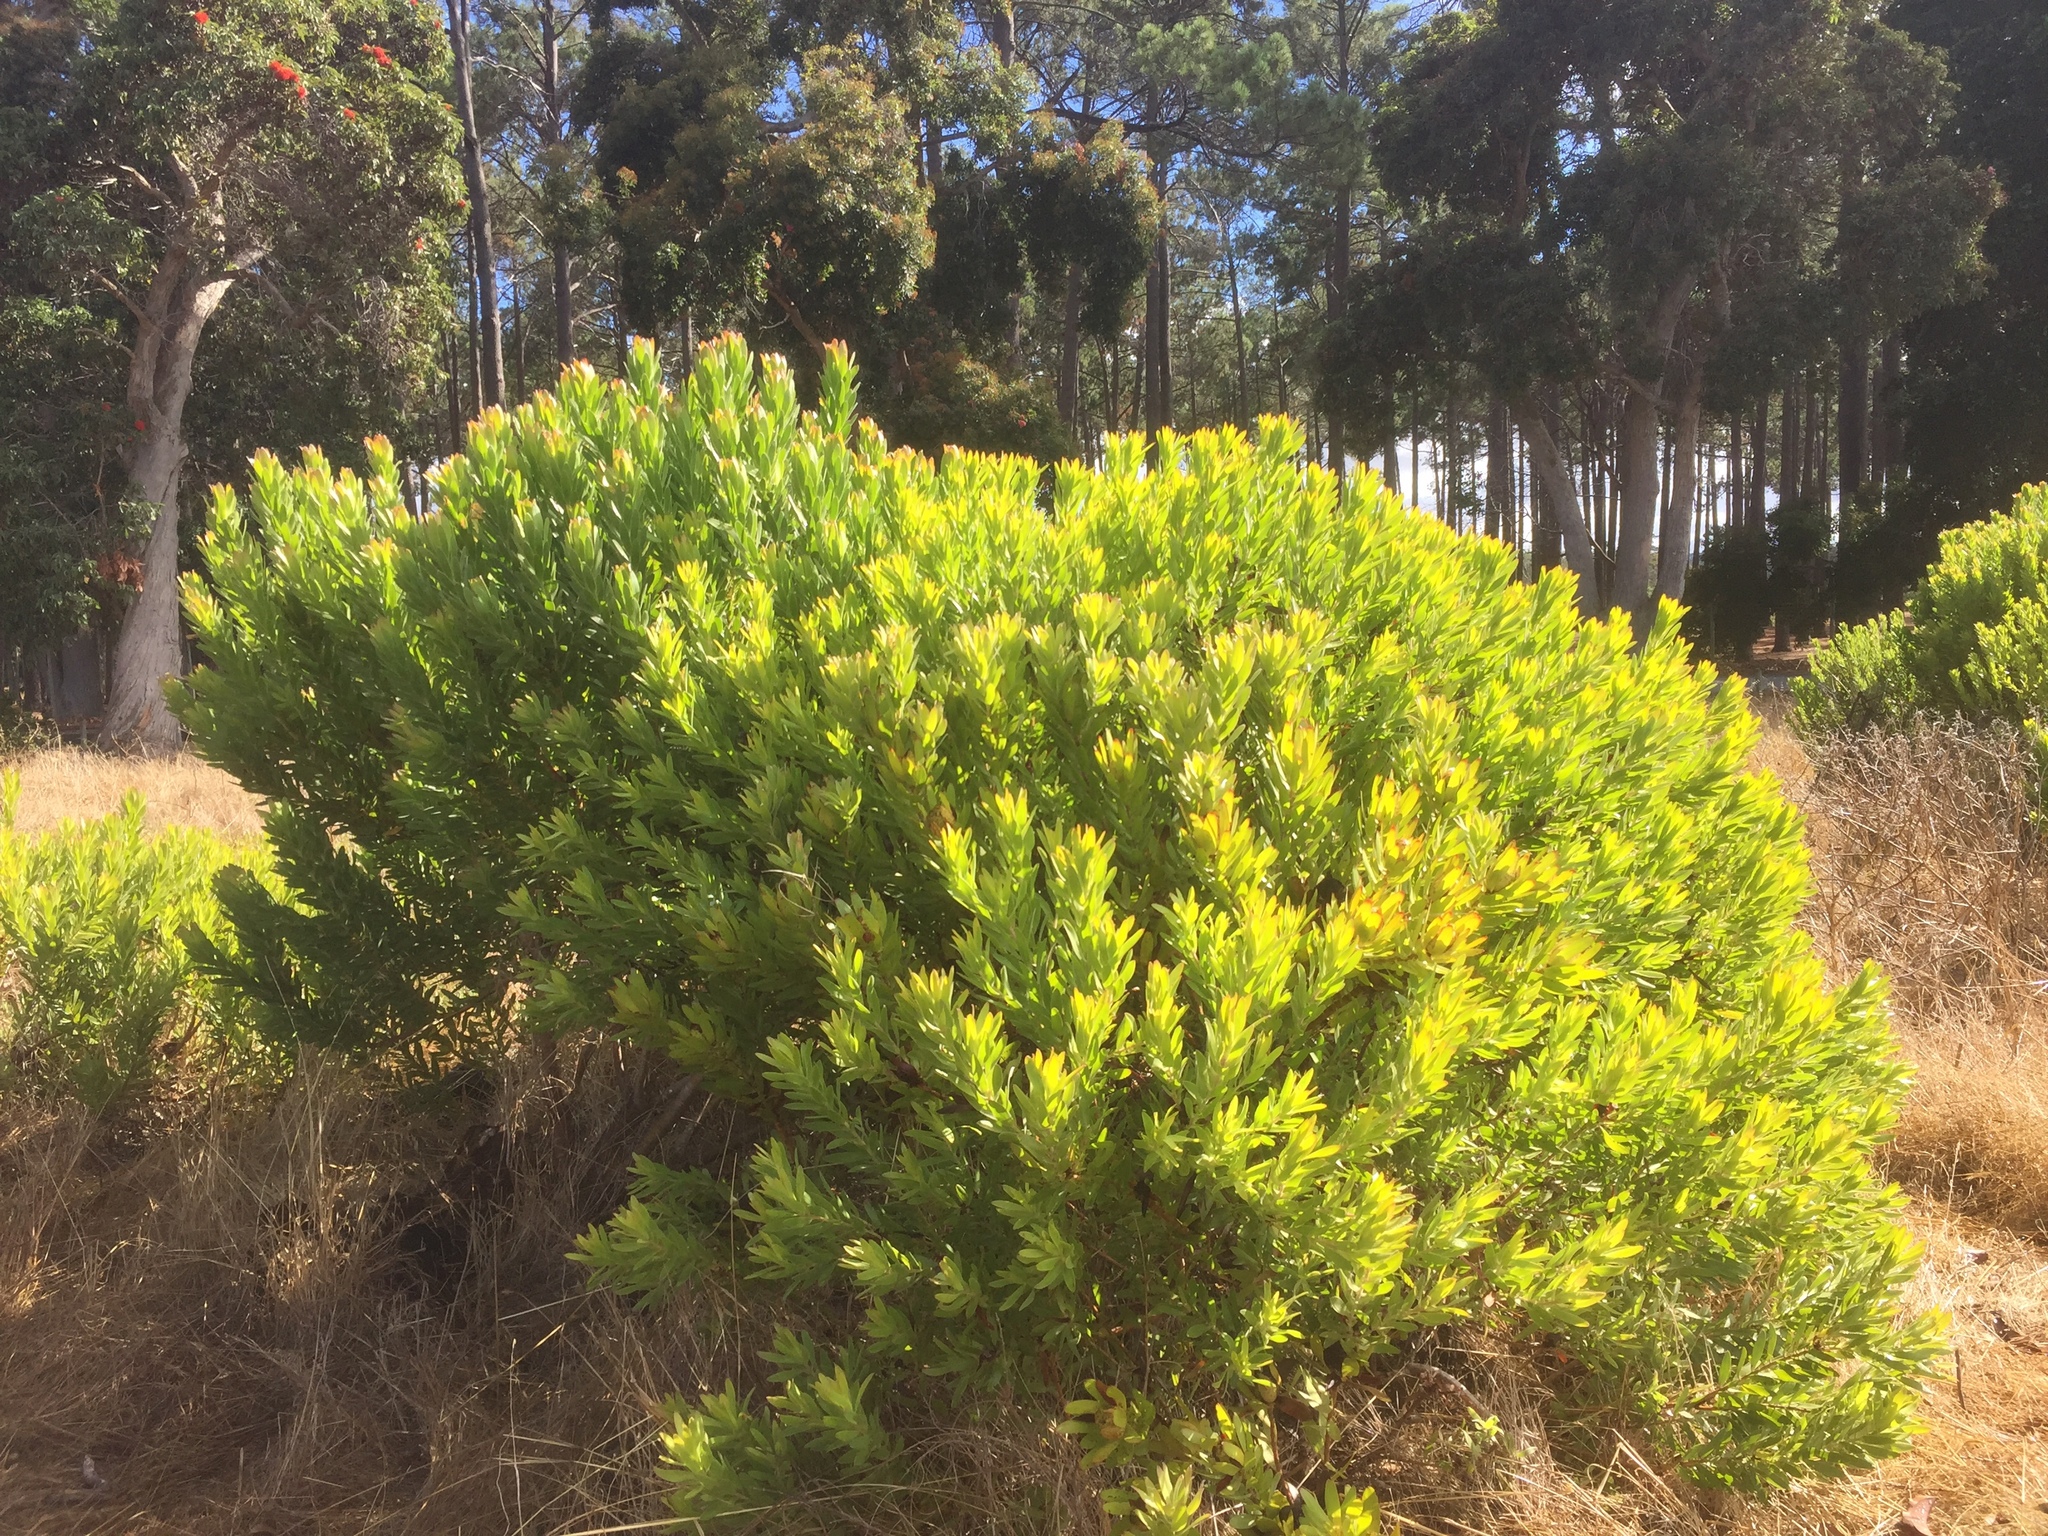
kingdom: Plantae
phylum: Tracheophyta
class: Magnoliopsida
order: Proteales
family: Proteaceae
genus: Leucadendron
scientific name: Leucadendron laureolum
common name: Golden sunshinebush
